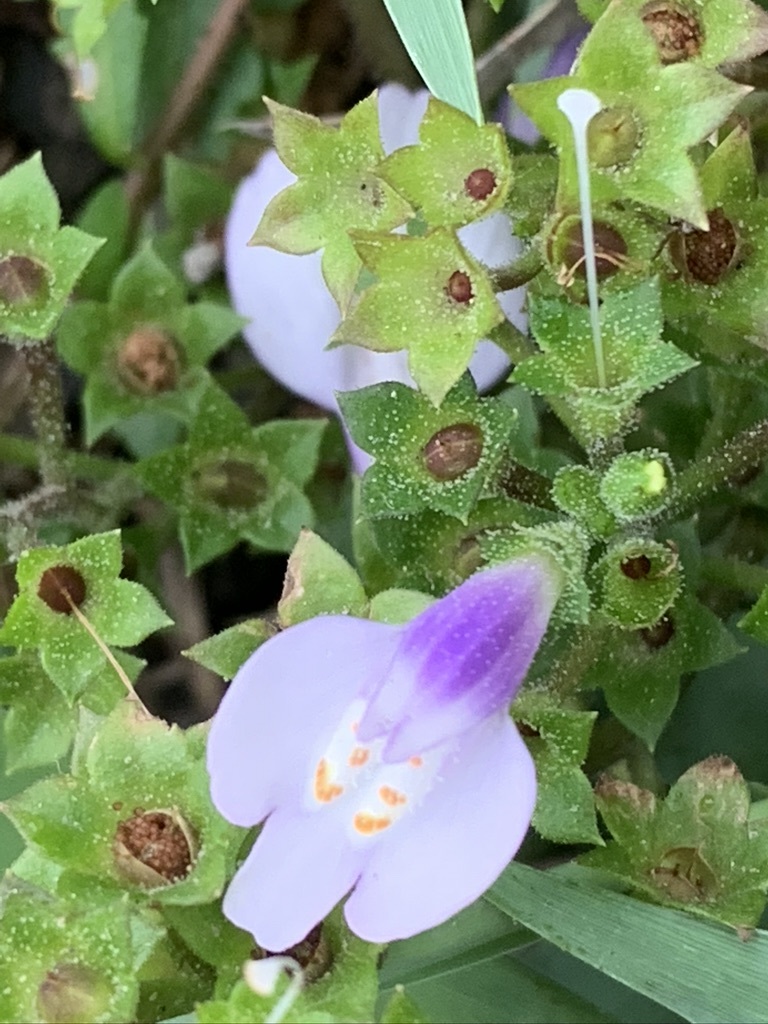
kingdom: Plantae
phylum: Tracheophyta
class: Magnoliopsida
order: Lamiales
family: Mazaceae
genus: Mazus
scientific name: Mazus fauriei
